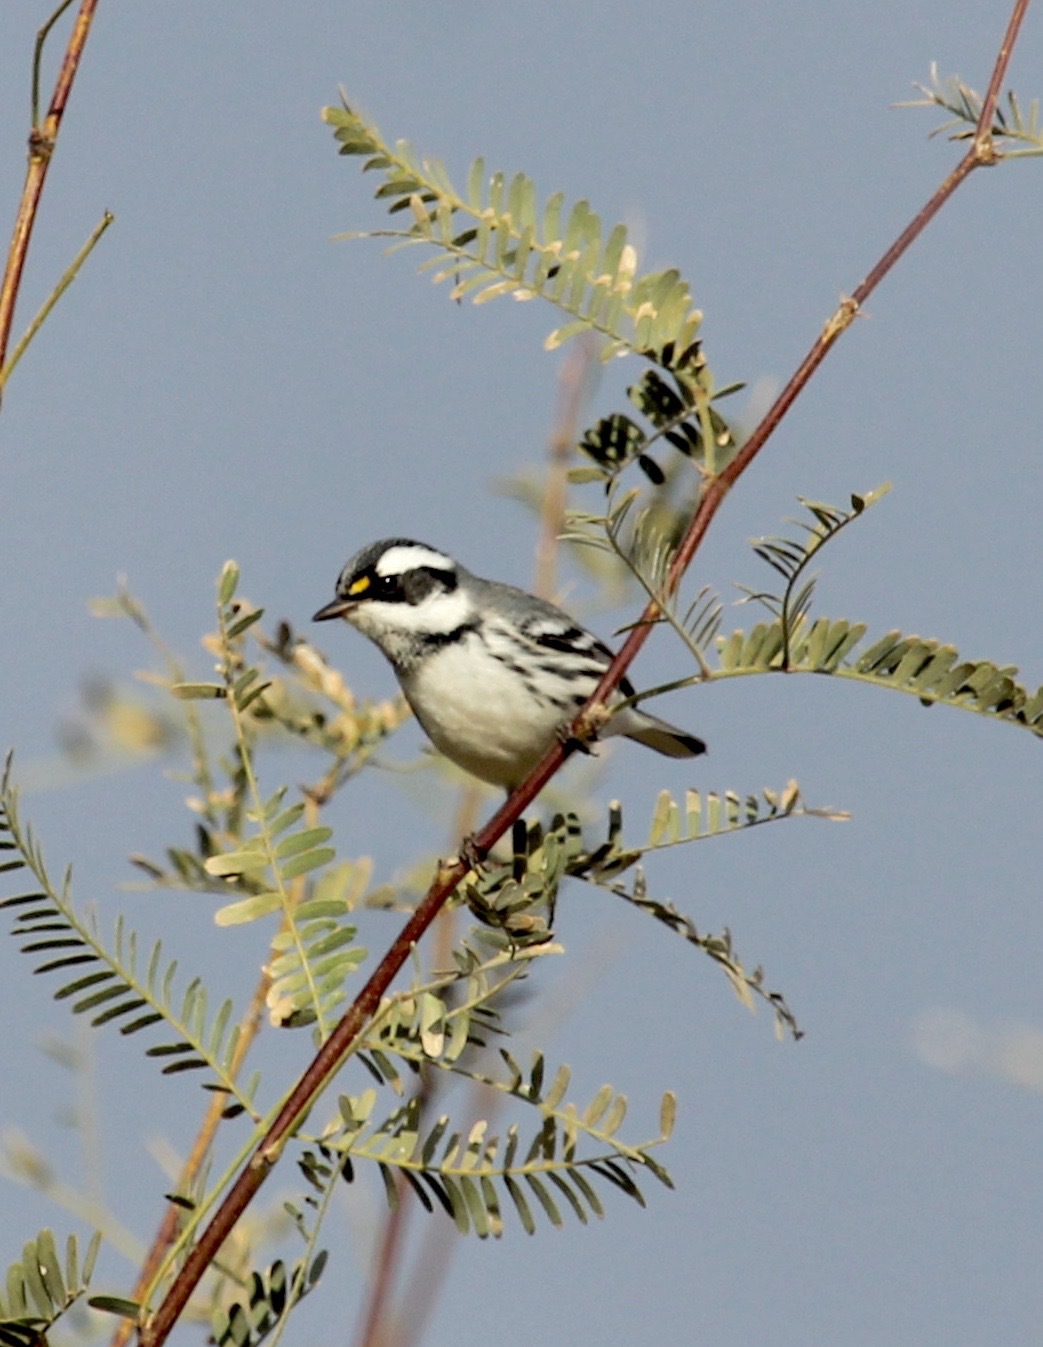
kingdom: Animalia
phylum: Chordata
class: Aves
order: Passeriformes
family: Parulidae
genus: Setophaga
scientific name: Setophaga nigrescens
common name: Black-throated gray warbler
